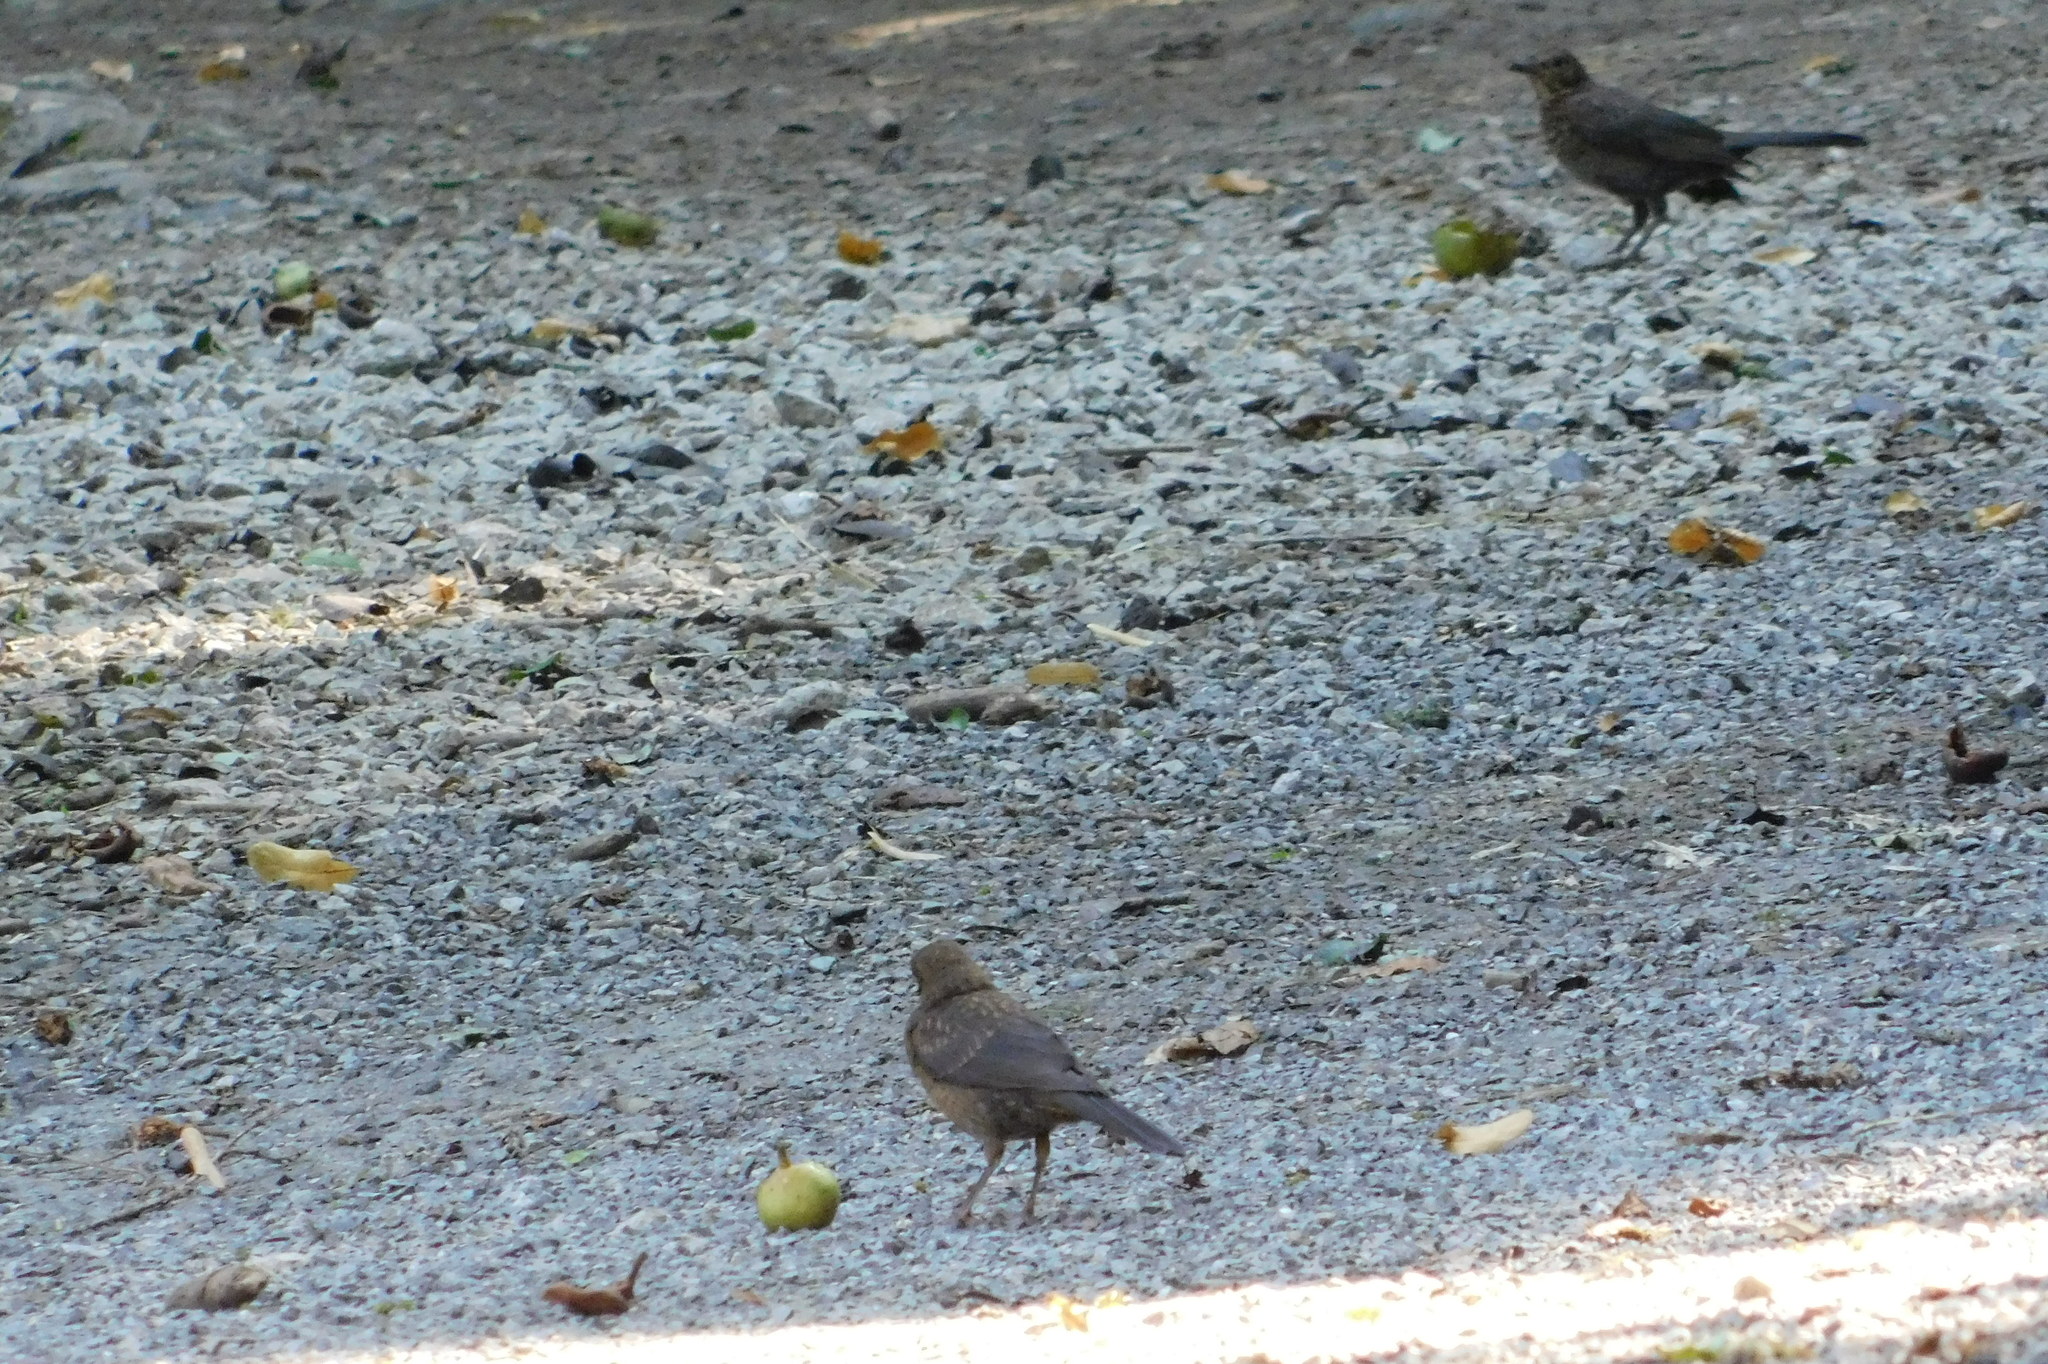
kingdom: Animalia
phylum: Chordata
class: Aves
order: Passeriformes
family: Turdidae
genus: Turdus
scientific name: Turdus merula
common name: Common blackbird
